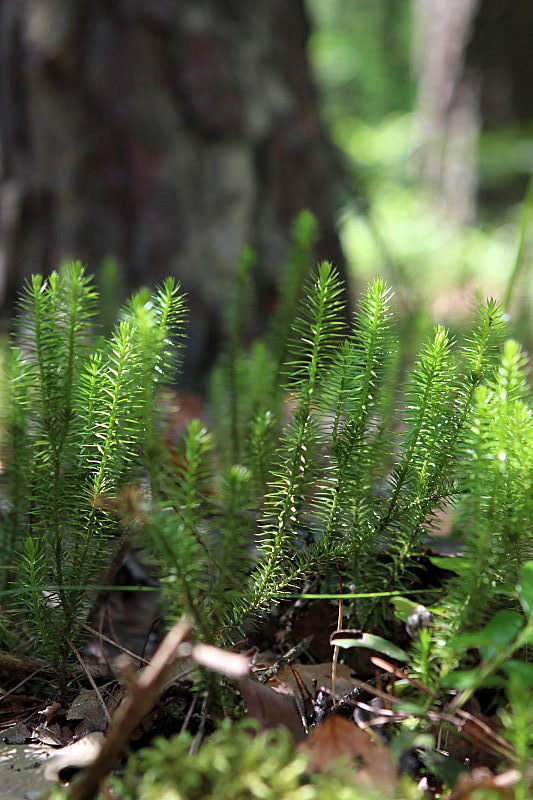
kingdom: Plantae
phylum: Tracheophyta
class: Lycopodiopsida
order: Lycopodiales
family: Lycopodiaceae
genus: Spinulum
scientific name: Spinulum annotinum
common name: Interrupted club-moss
